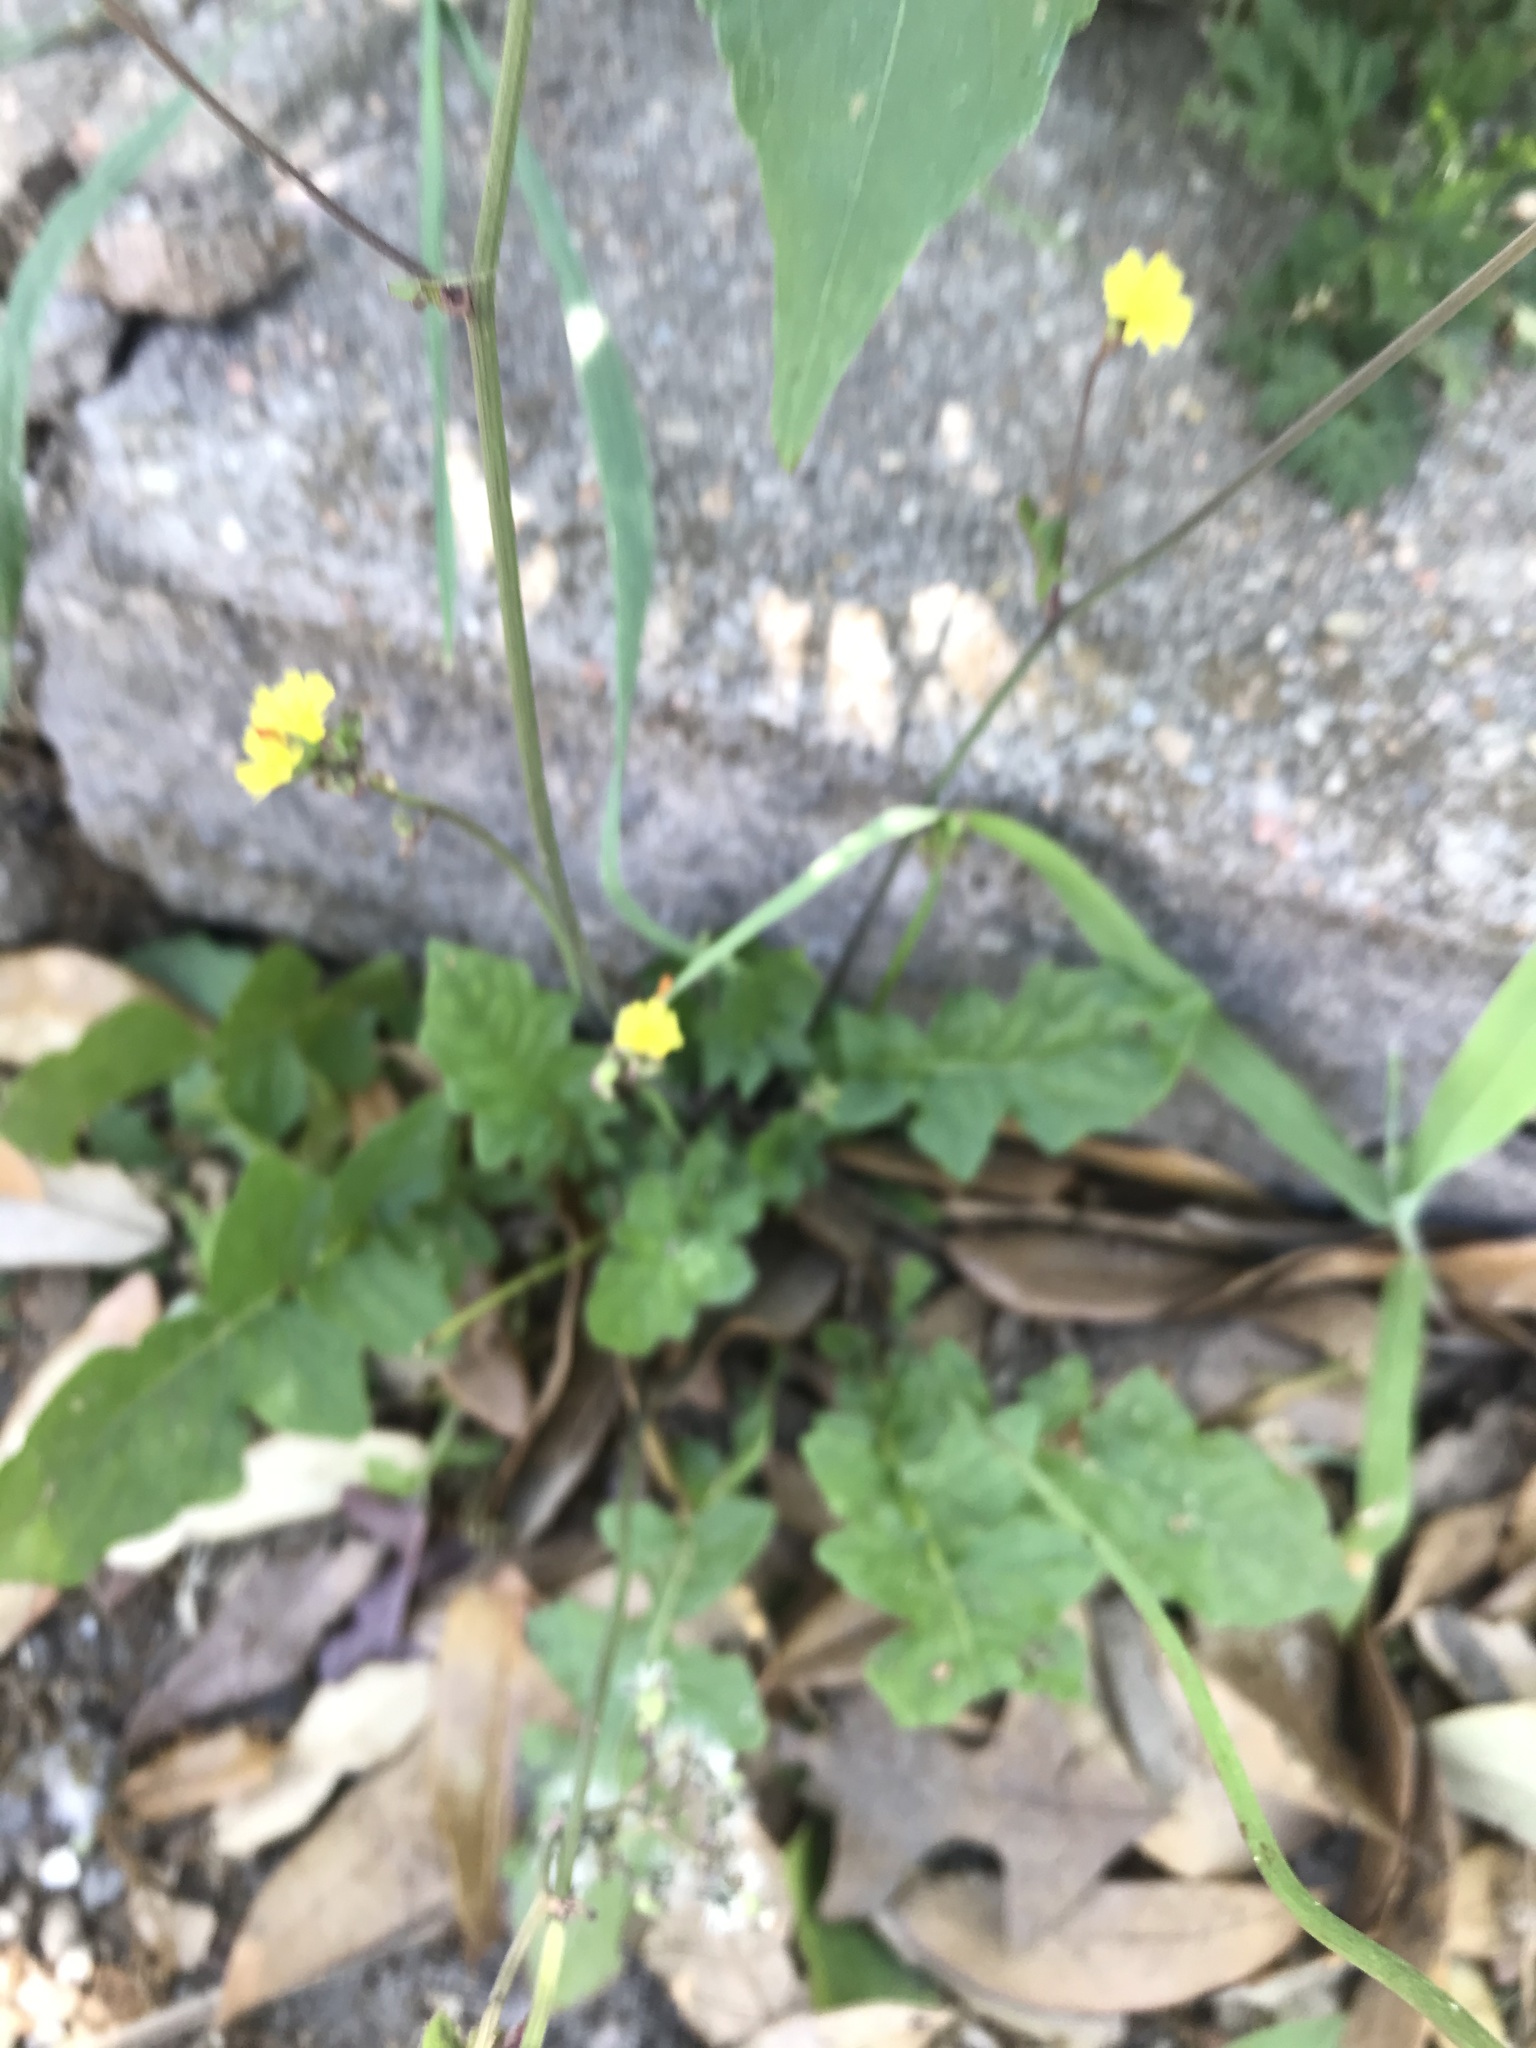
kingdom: Plantae
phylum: Tracheophyta
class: Magnoliopsida
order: Asterales
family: Asteraceae
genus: Youngia
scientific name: Youngia japonica
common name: Oriental false hawksbeard
